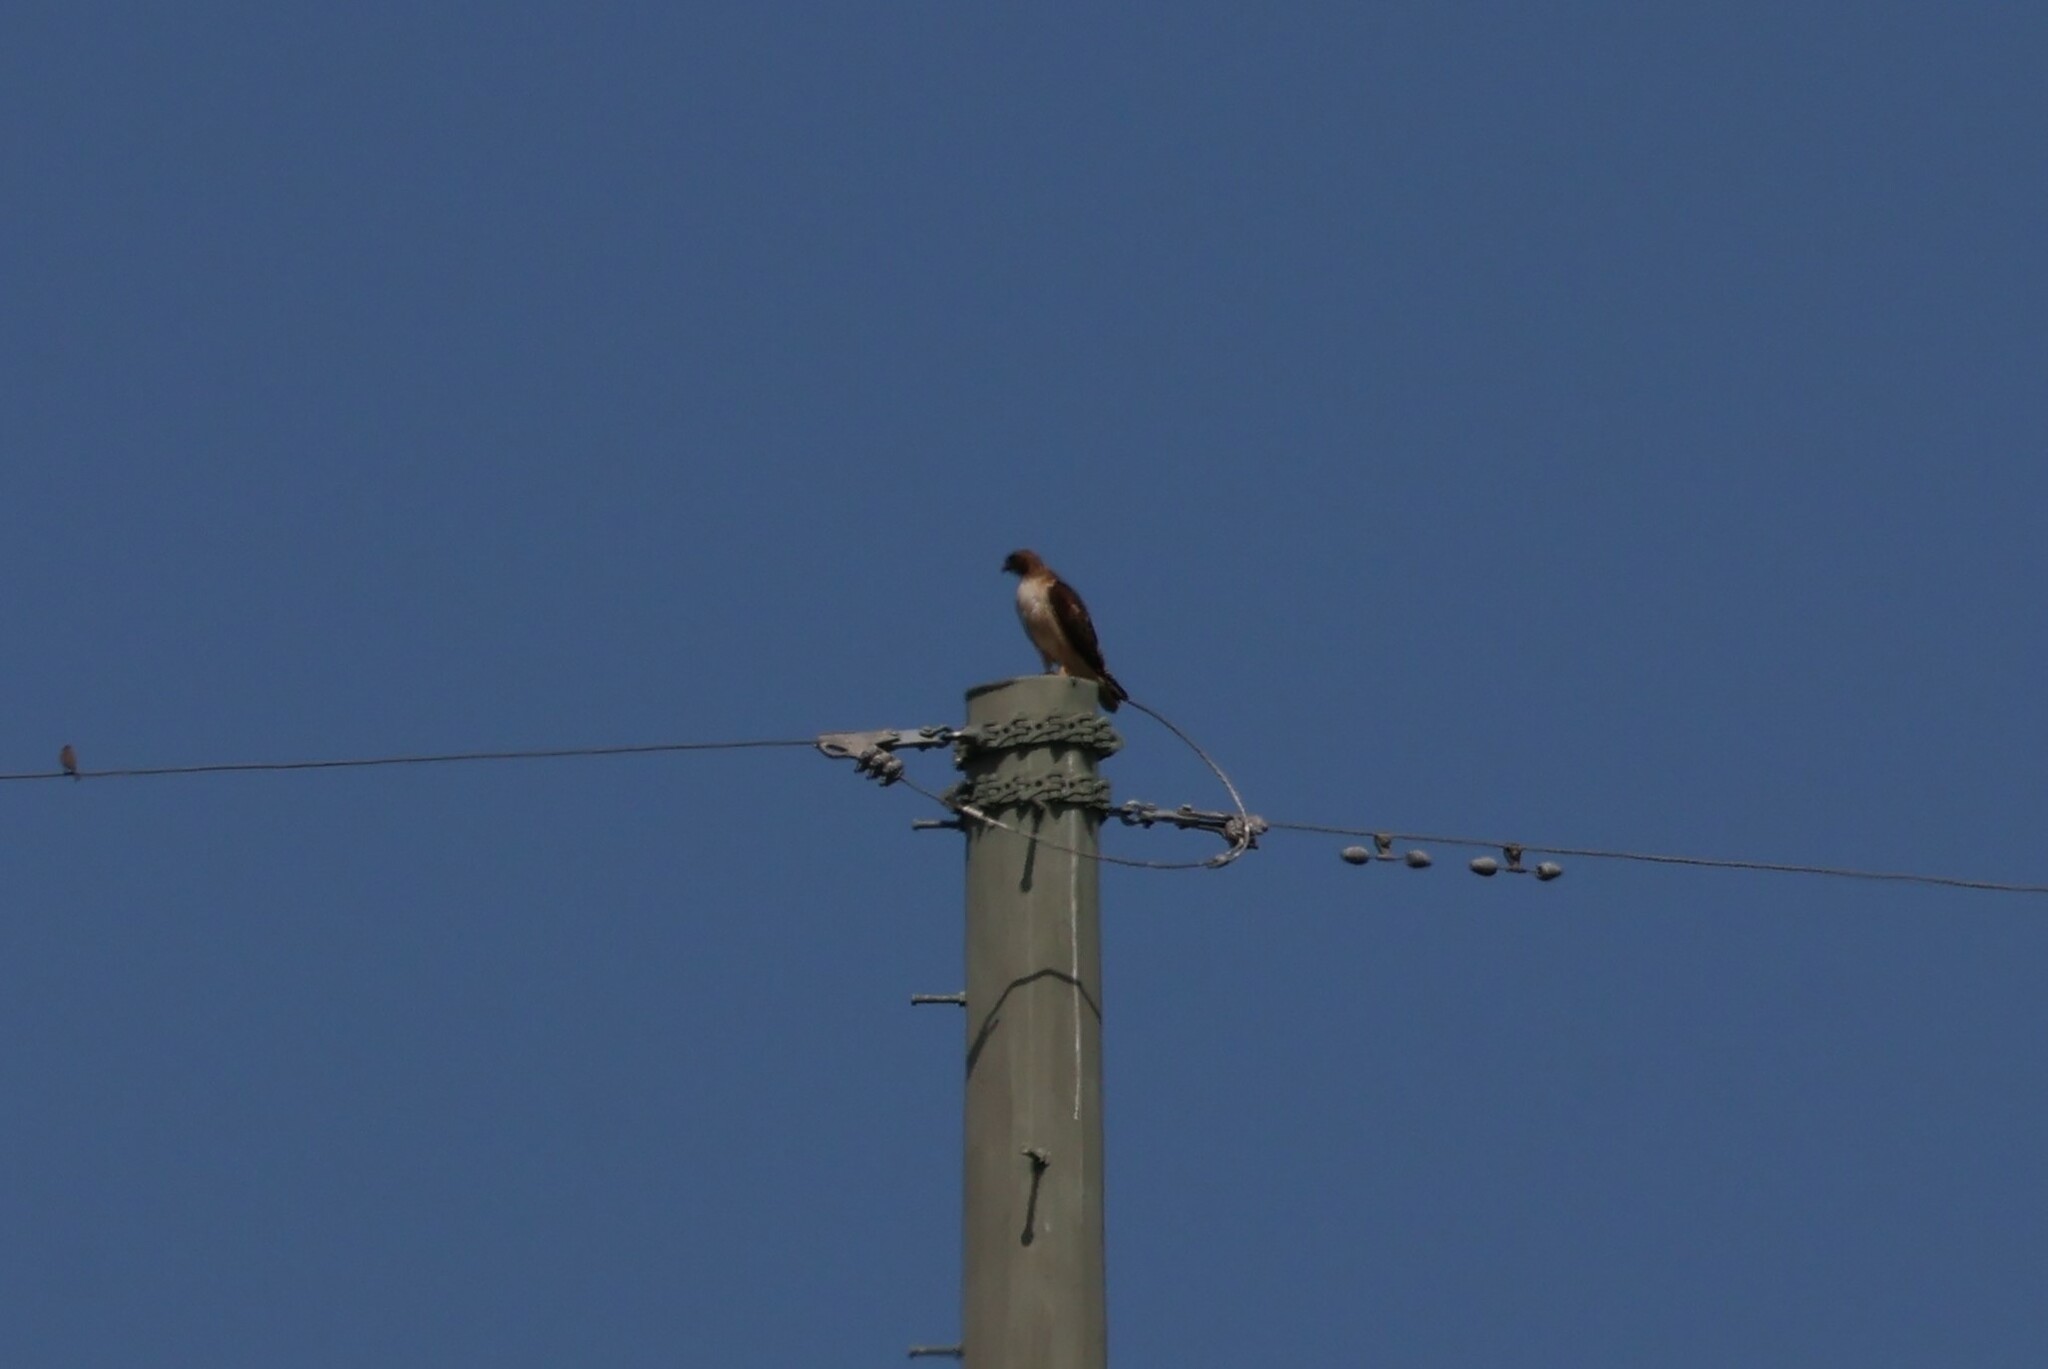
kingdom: Animalia
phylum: Chordata
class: Aves
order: Accipitriformes
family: Accipitridae
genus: Buteo
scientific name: Buteo jamaicensis
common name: Red-tailed hawk
